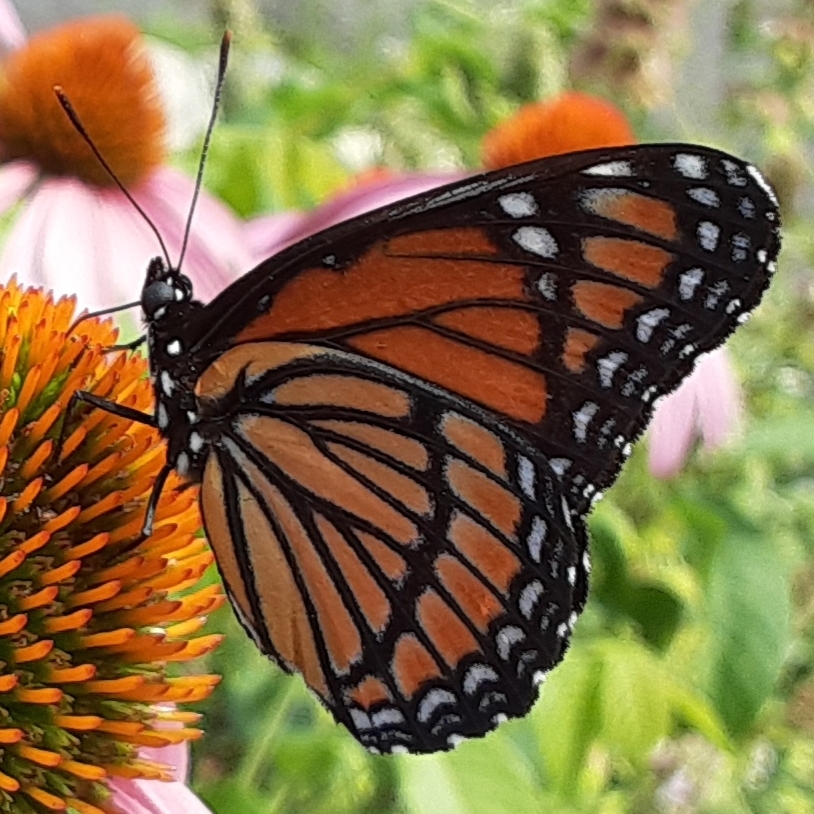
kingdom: Animalia
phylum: Arthropoda
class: Insecta
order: Lepidoptera
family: Nymphalidae
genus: Limenitis
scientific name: Limenitis archippus
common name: Viceroy
